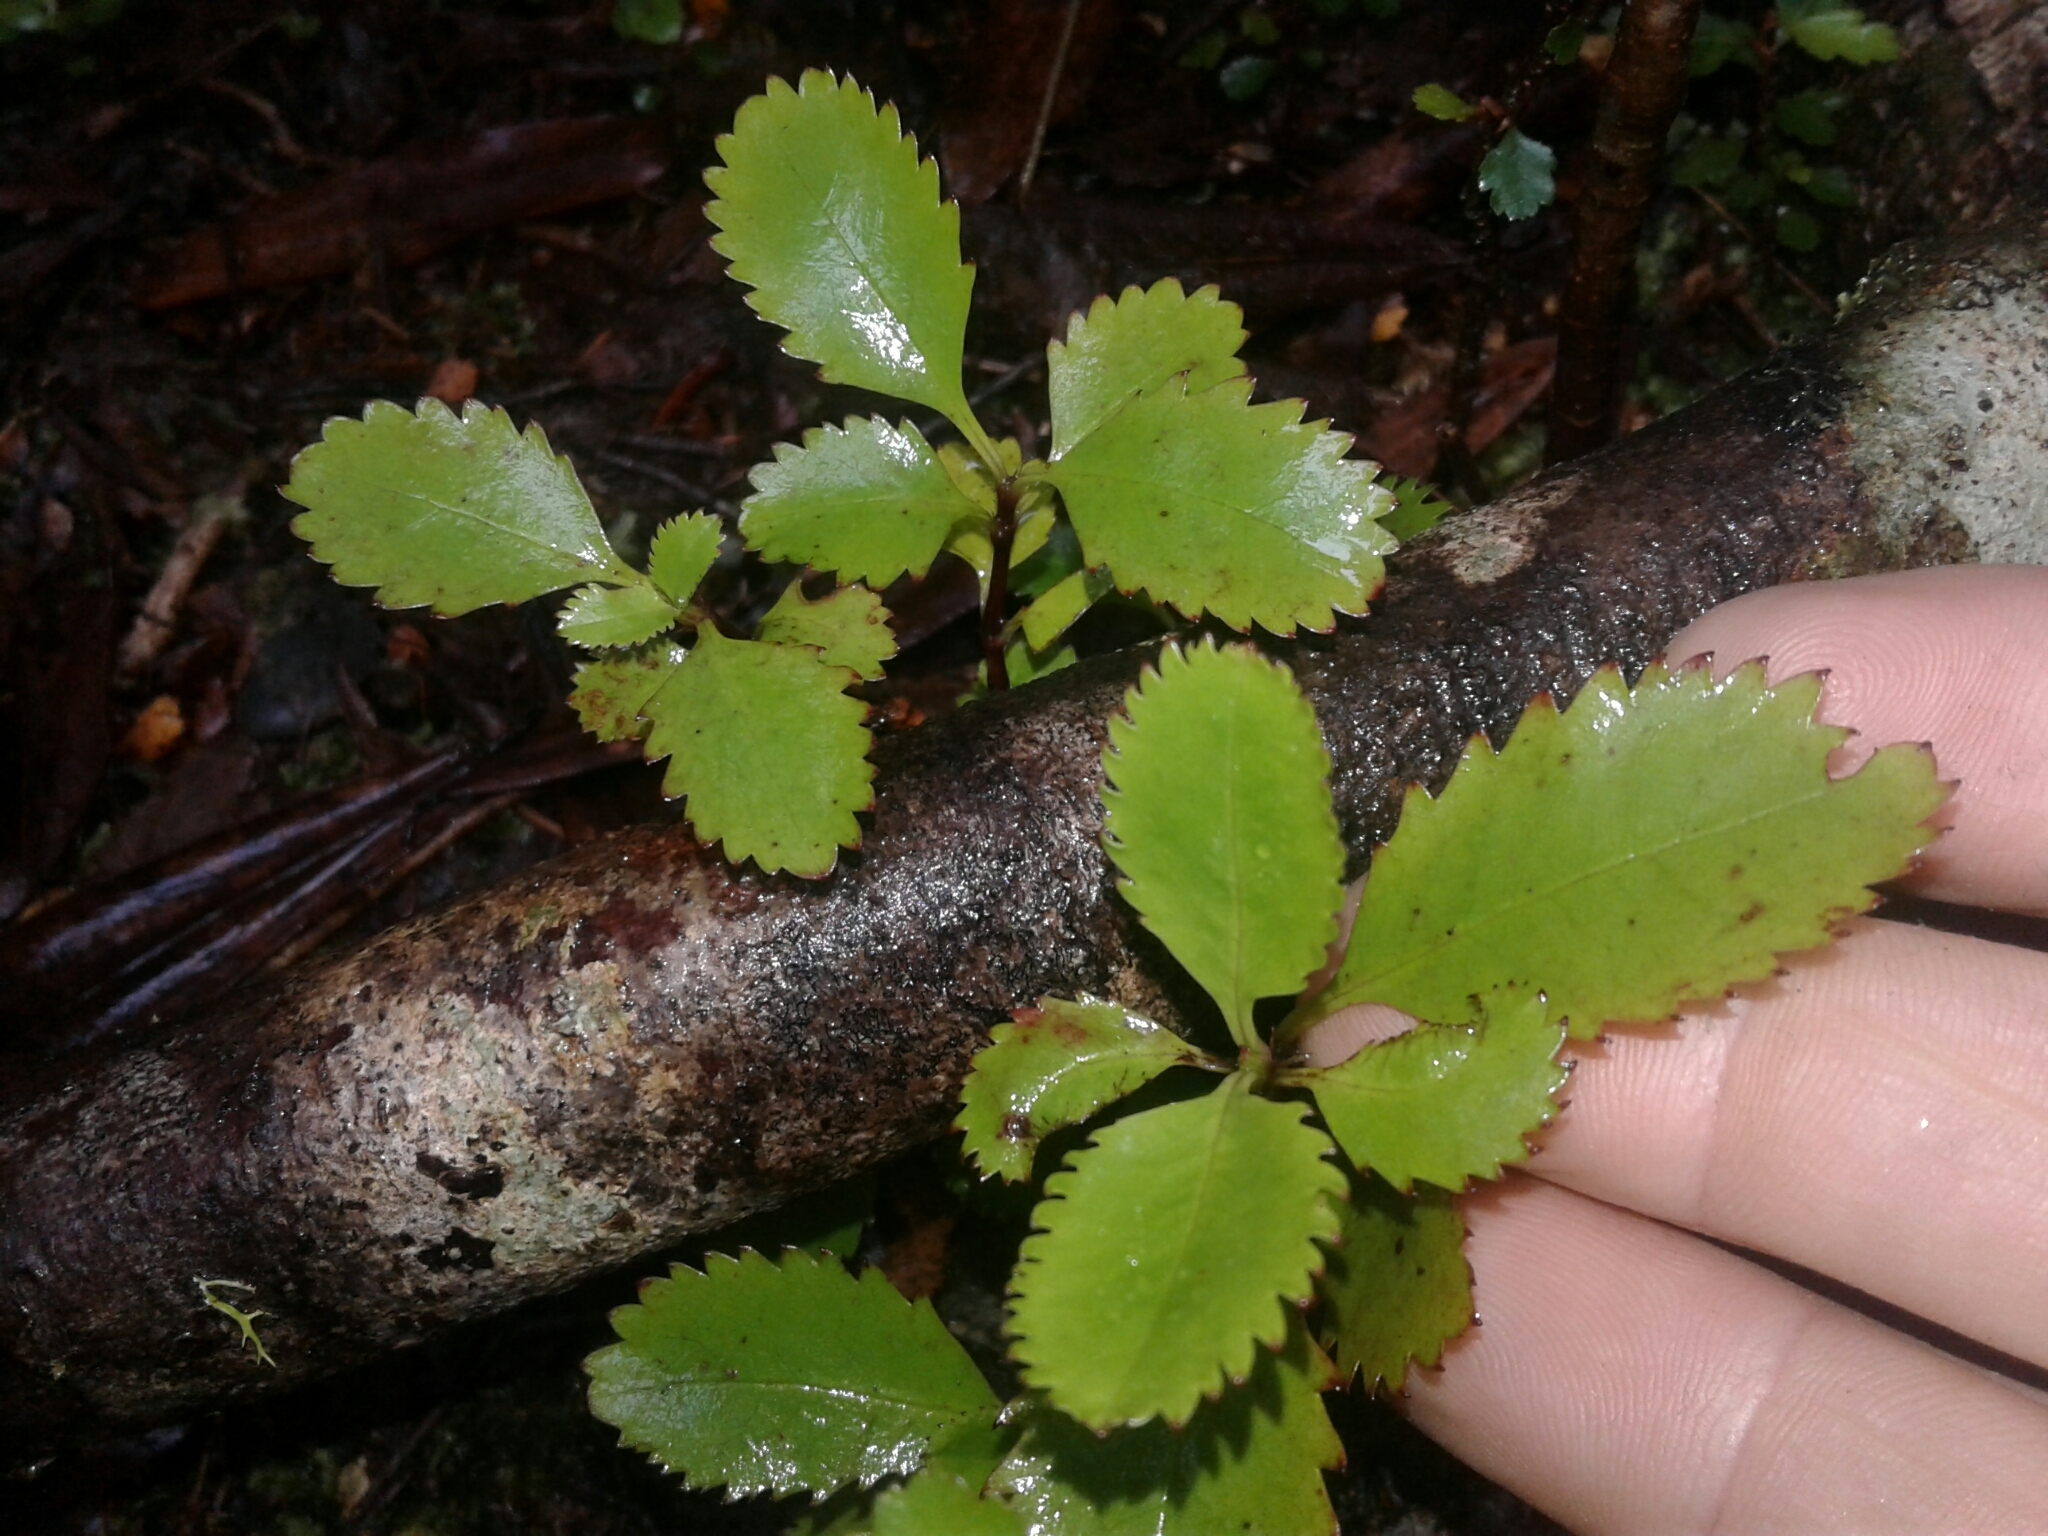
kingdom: Plantae
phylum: Tracheophyta
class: Magnoliopsida
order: Chloranthales
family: Chloranthaceae
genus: Ascarina
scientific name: Ascarina lucida
